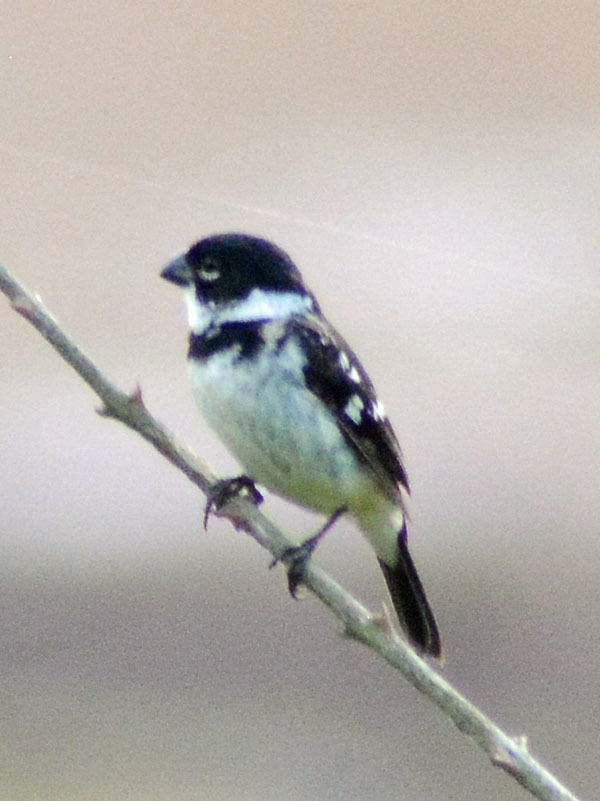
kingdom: Animalia
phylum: Chordata
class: Aves
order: Passeriformes
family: Thraupidae
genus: Sporophila
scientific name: Sporophila morelleti
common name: Morelet's seedeater
